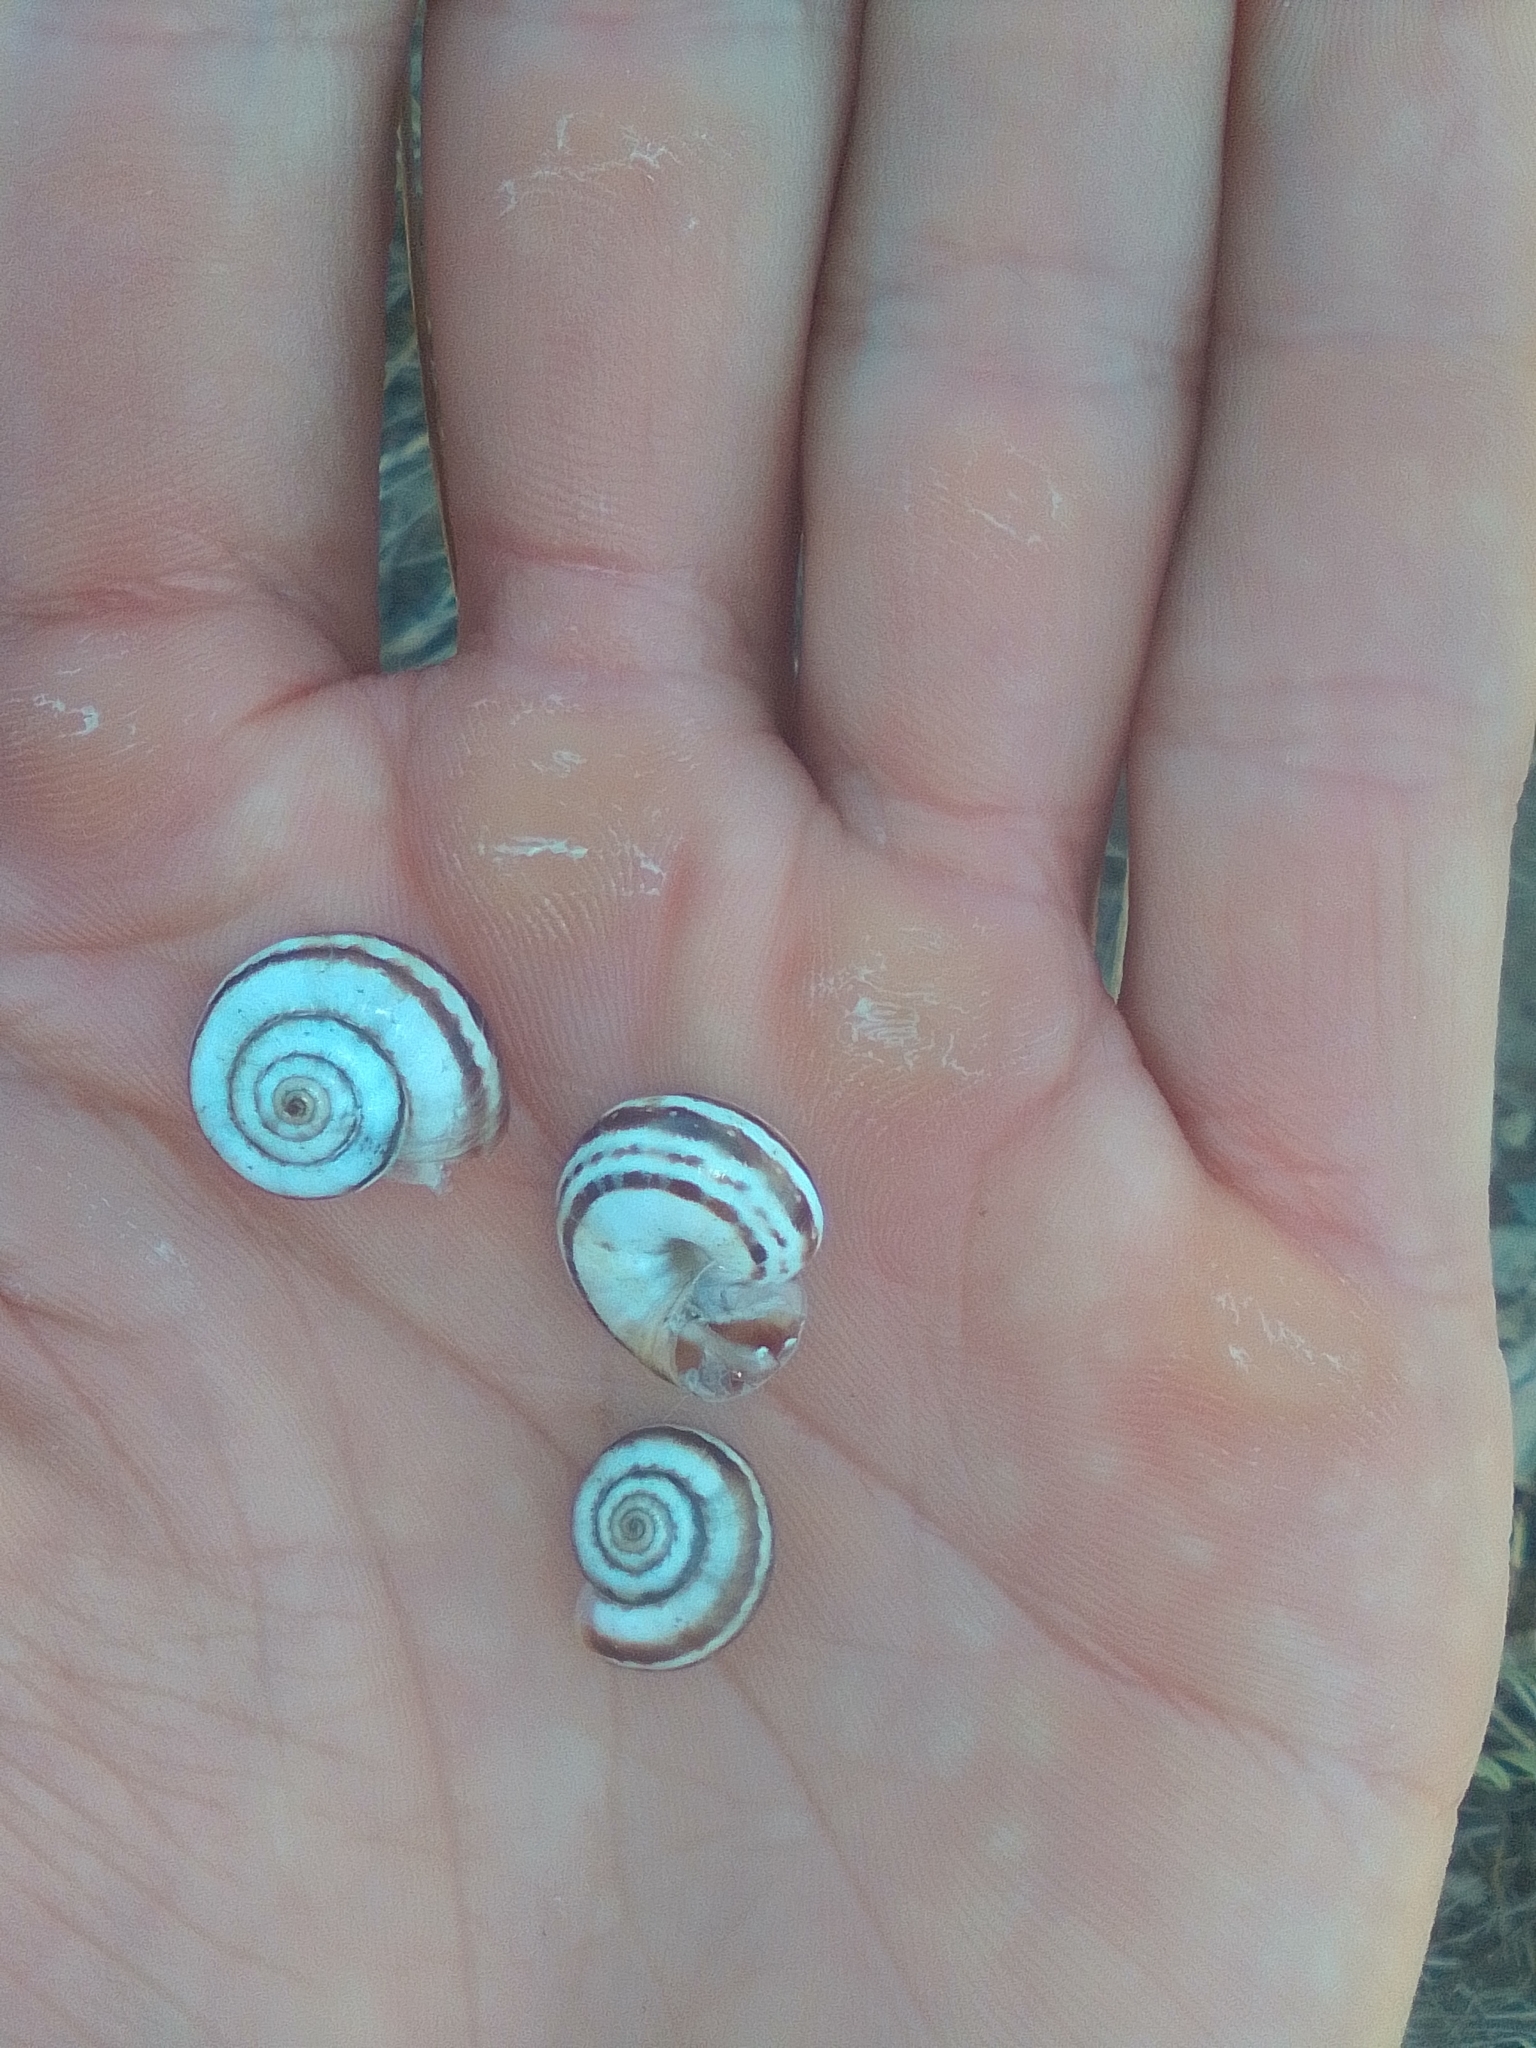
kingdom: Animalia
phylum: Mollusca
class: Gastropoda
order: Stylommatophora
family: Geomitridae
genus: Xeropicta
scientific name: Xeropicta krynickii
